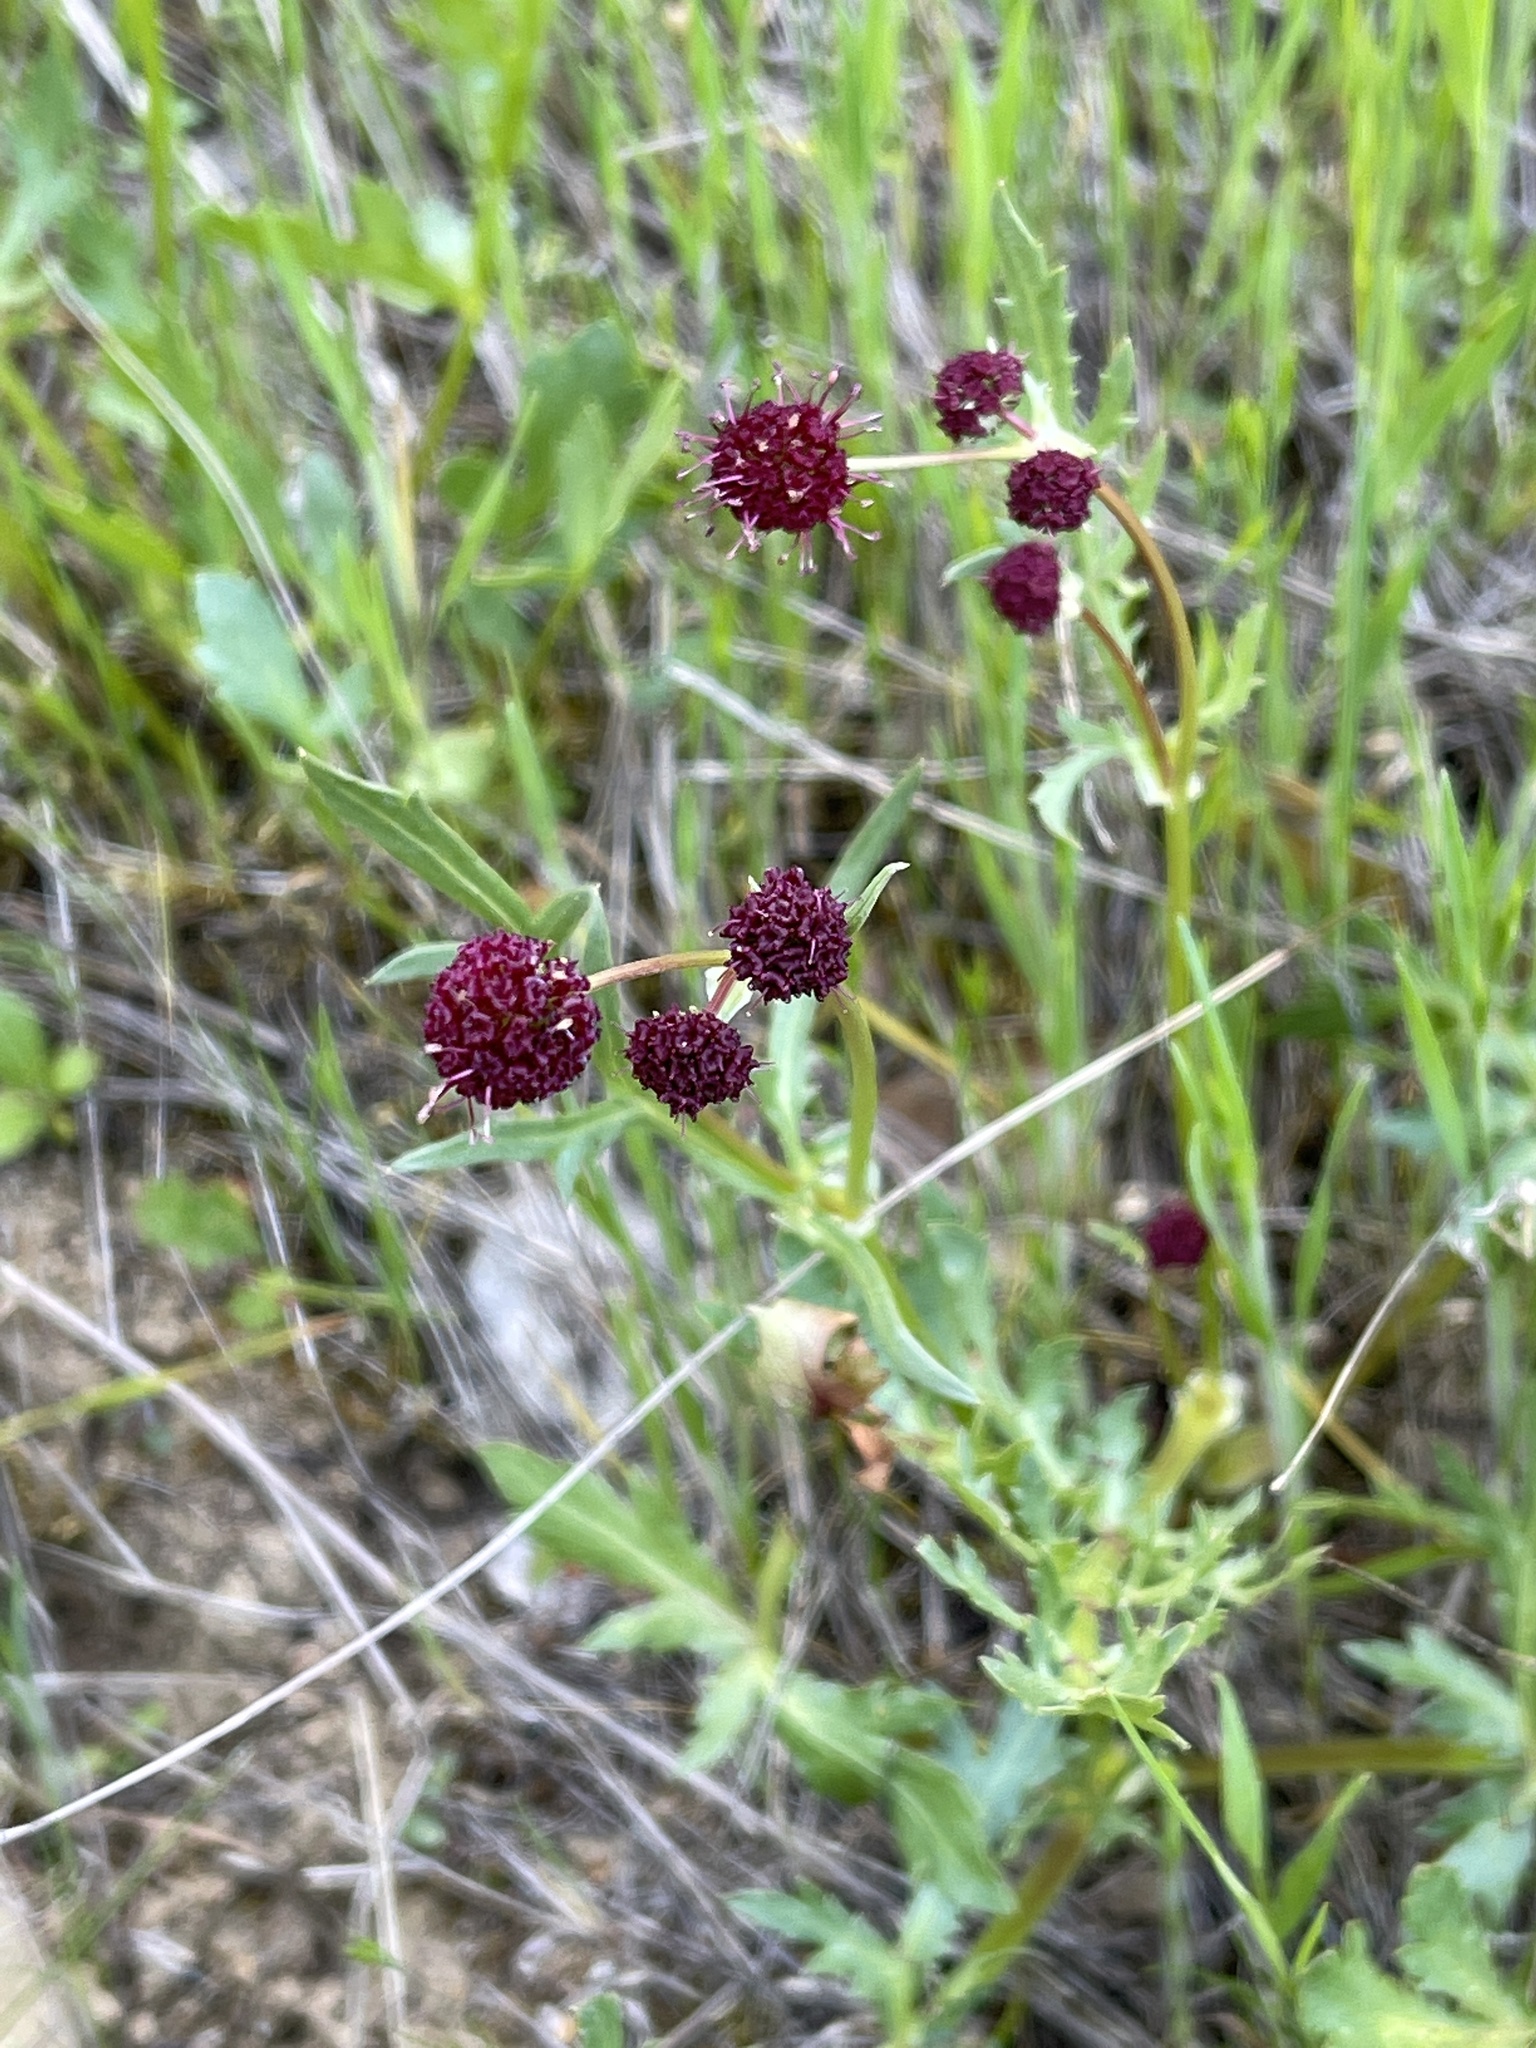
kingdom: Plantae
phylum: Tracheophyta
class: Magnoliopsida
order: Apiales
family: Apiaceae
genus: Sanicula
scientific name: Sanicula bipinnatifida
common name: Shoe-buttons
